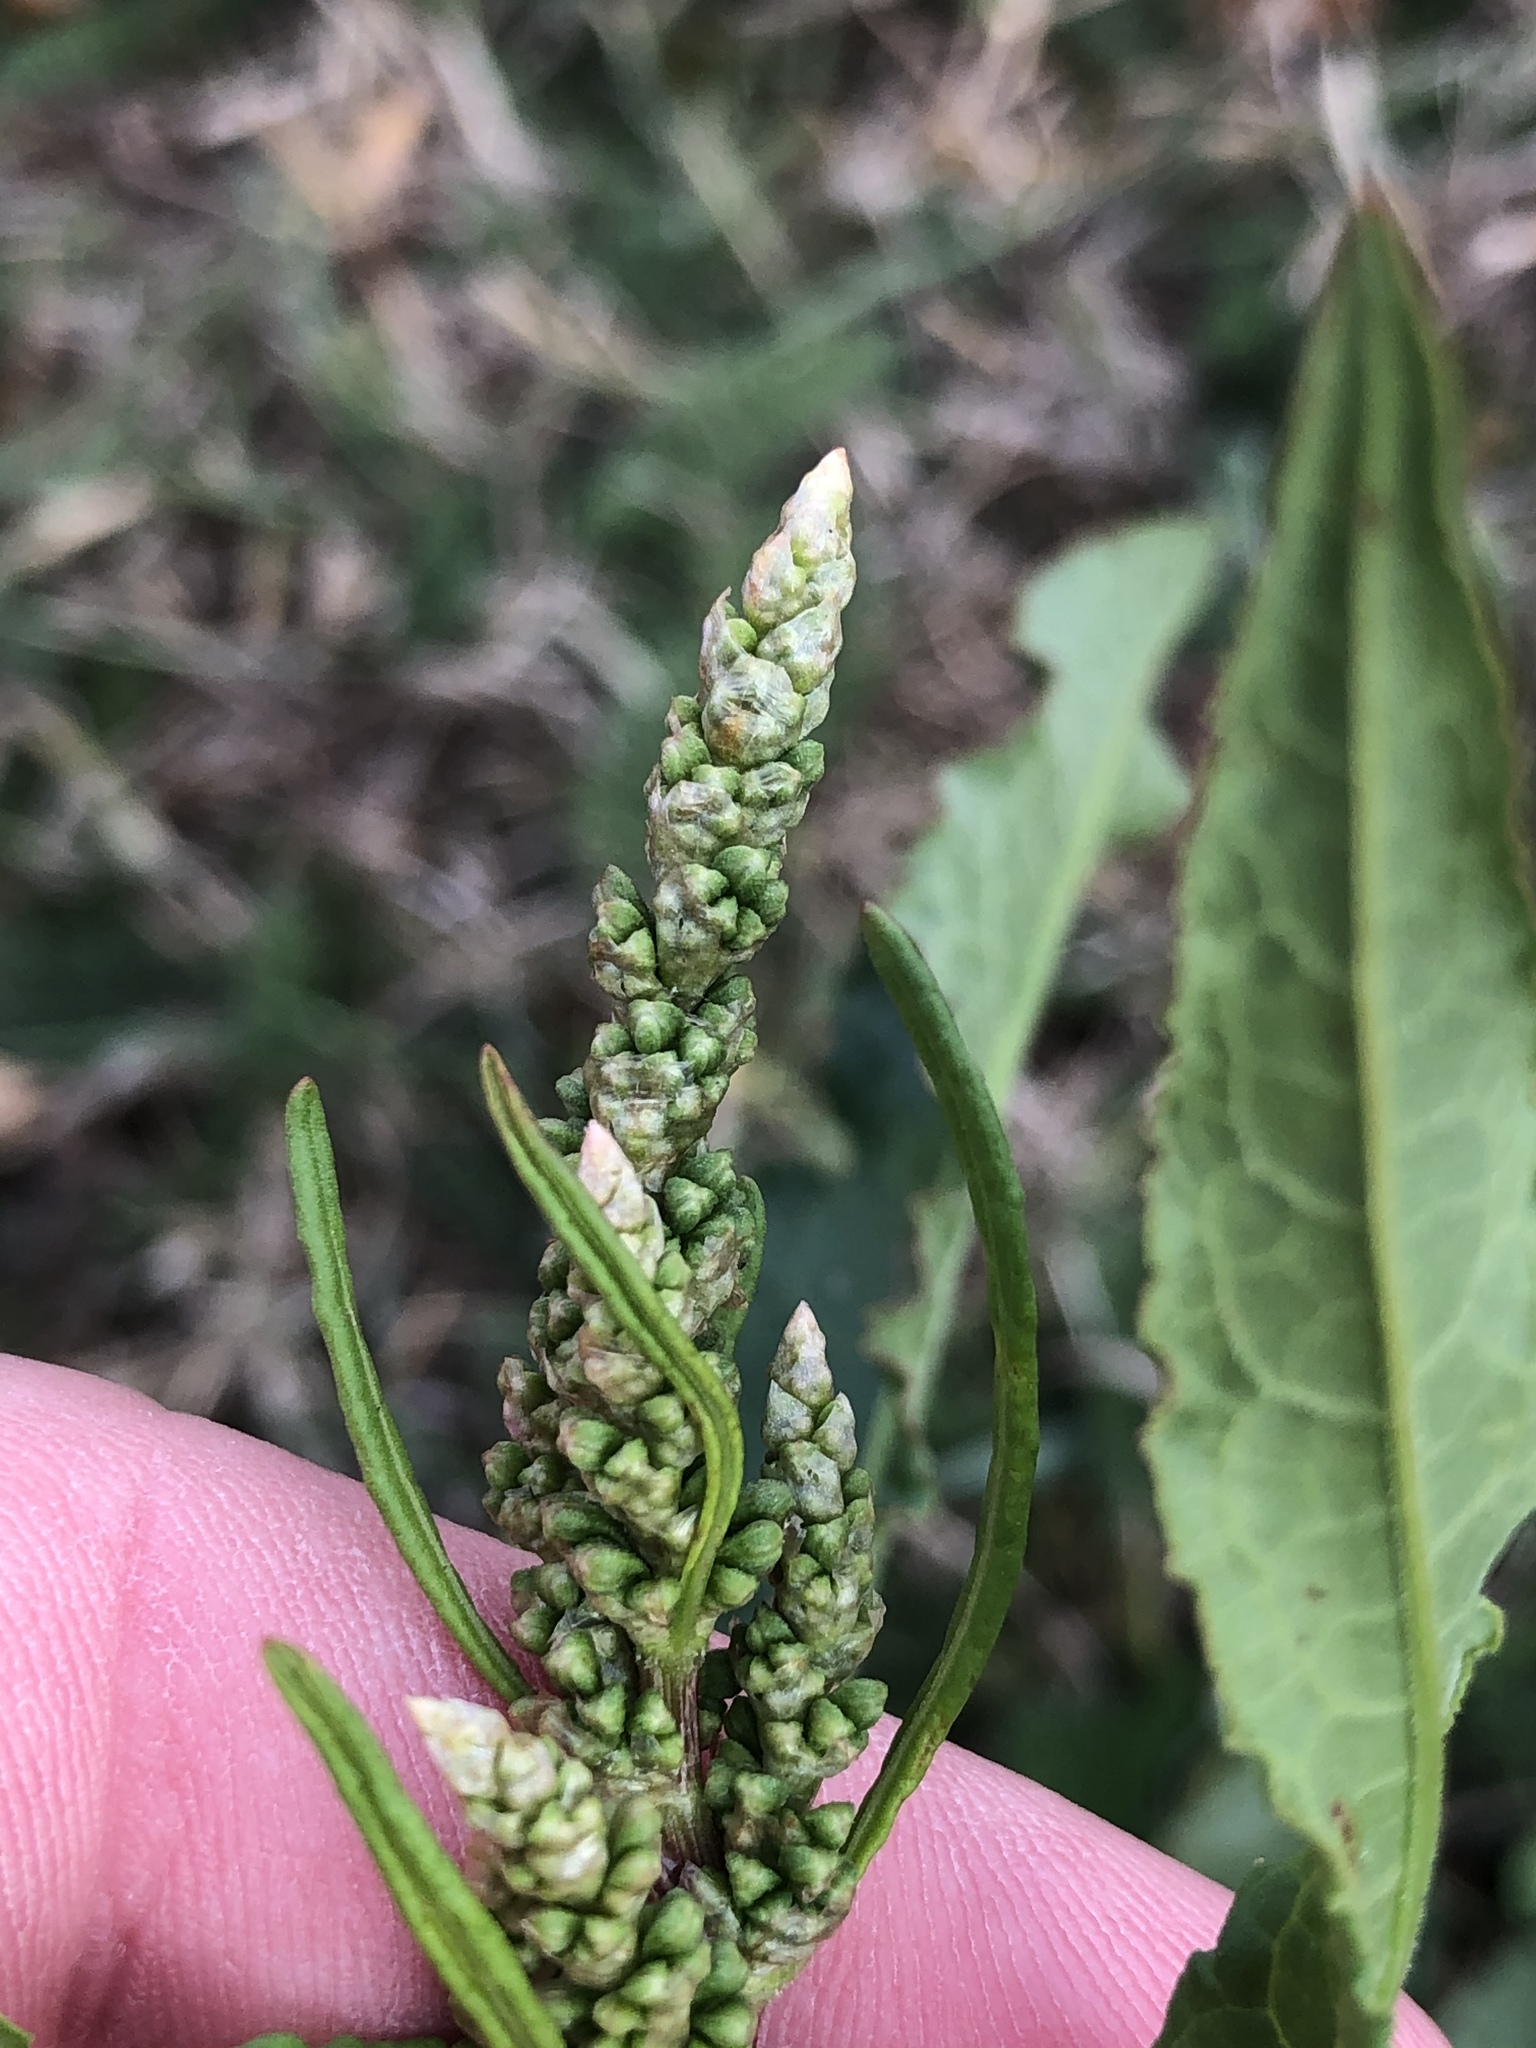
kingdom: Plantae
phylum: Tracheophyta
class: Magnoliopsida
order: Caryophyllales
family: Polygonaceae
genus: Rumex
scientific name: Rumex crispus
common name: Curled dock
